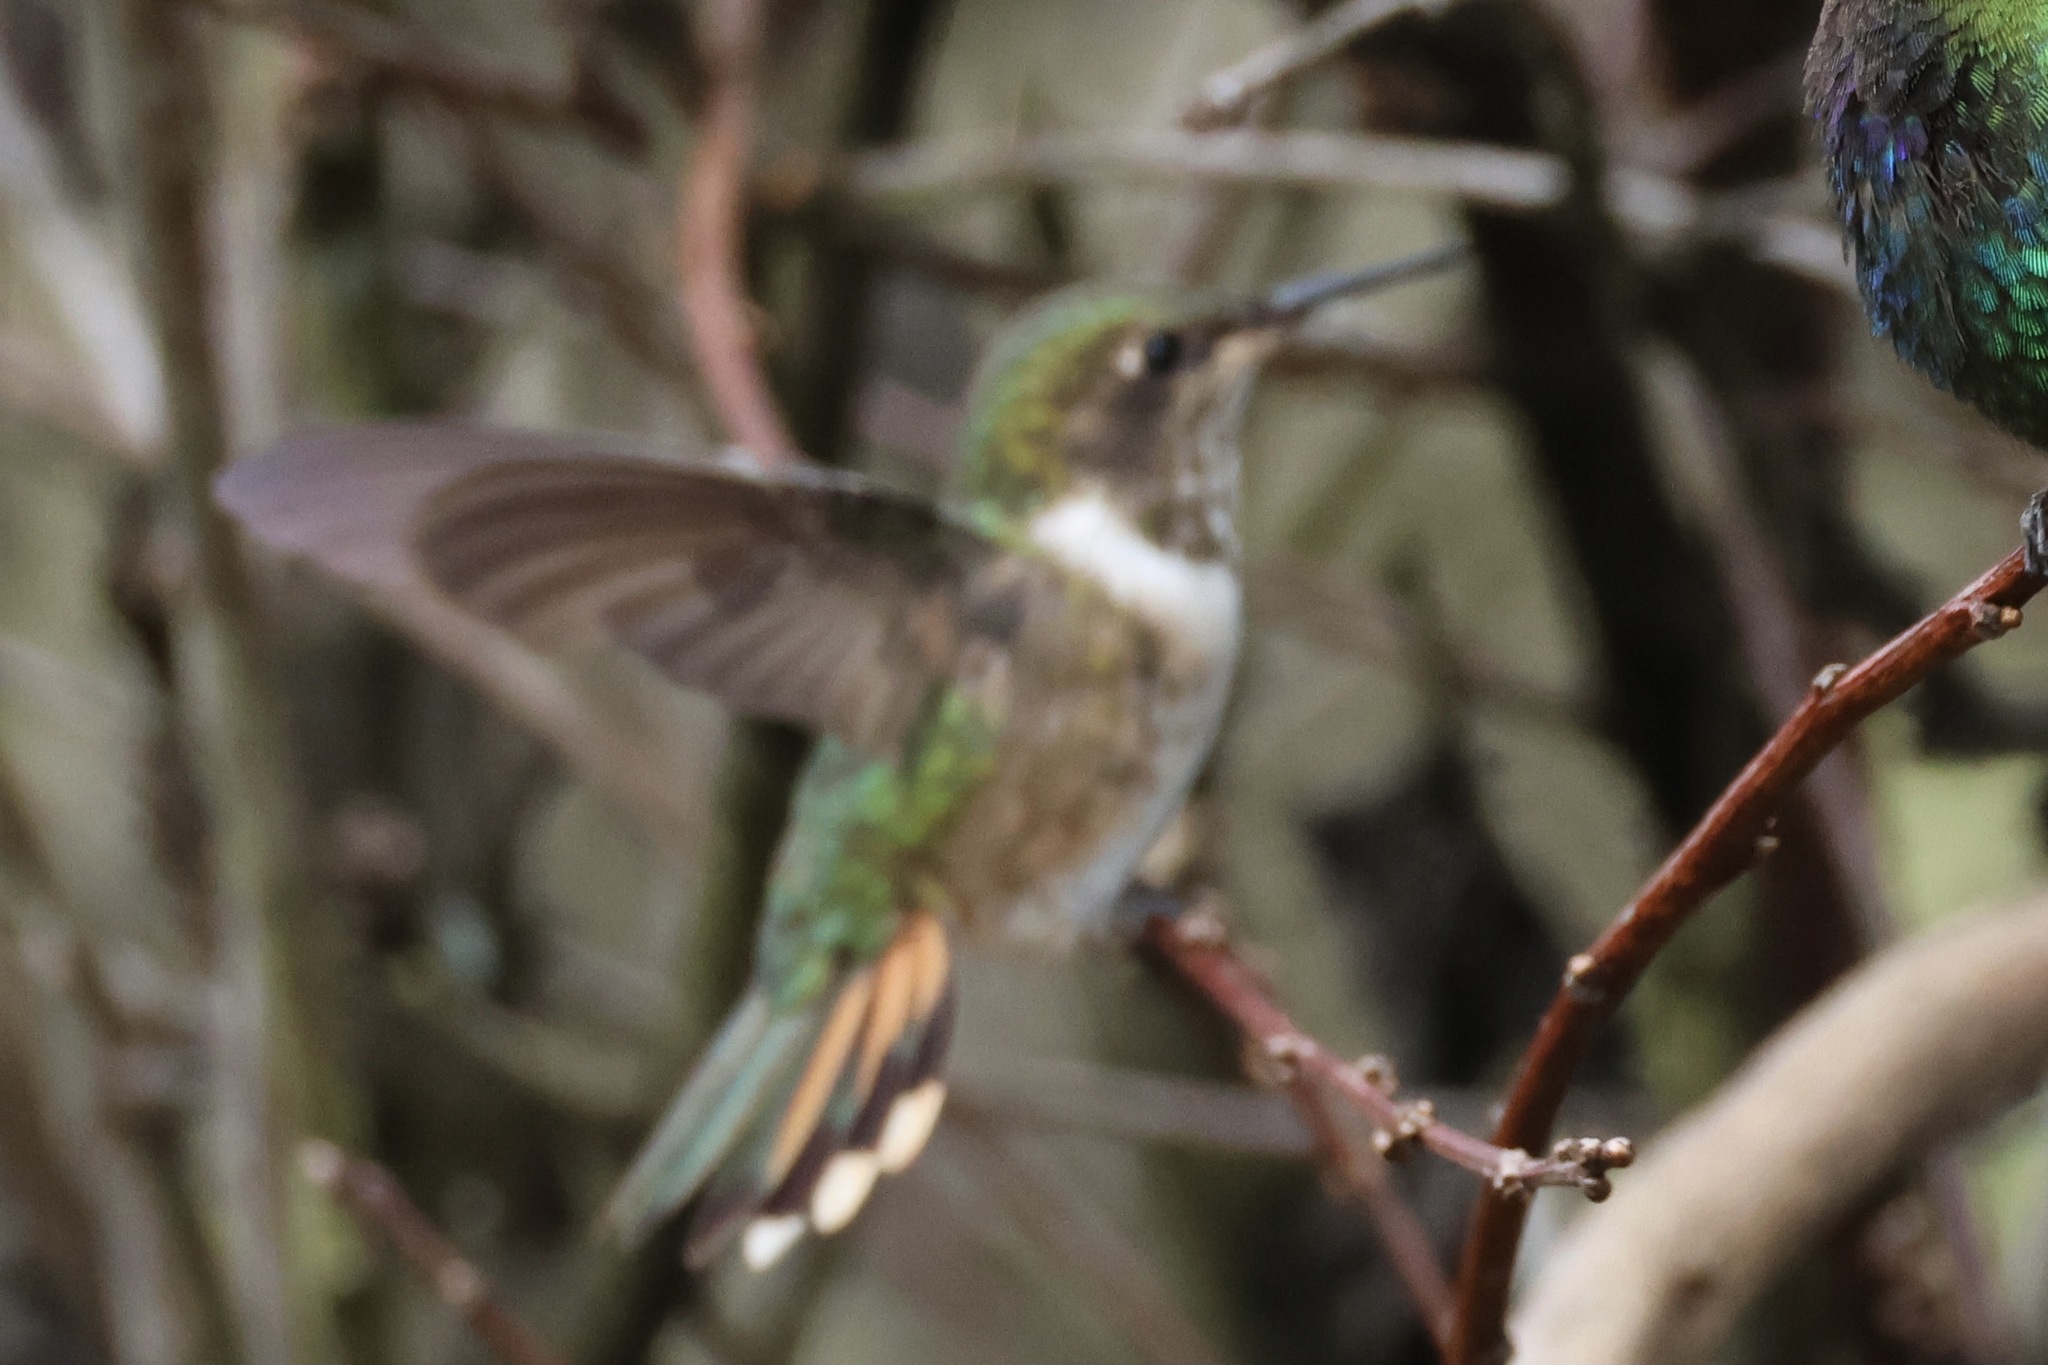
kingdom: Animalia
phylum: Chordata
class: Aves
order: Apodiformes
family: Trochilidae
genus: Selasphorus
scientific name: Selasphorus flammula
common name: Volcano hummingbird
